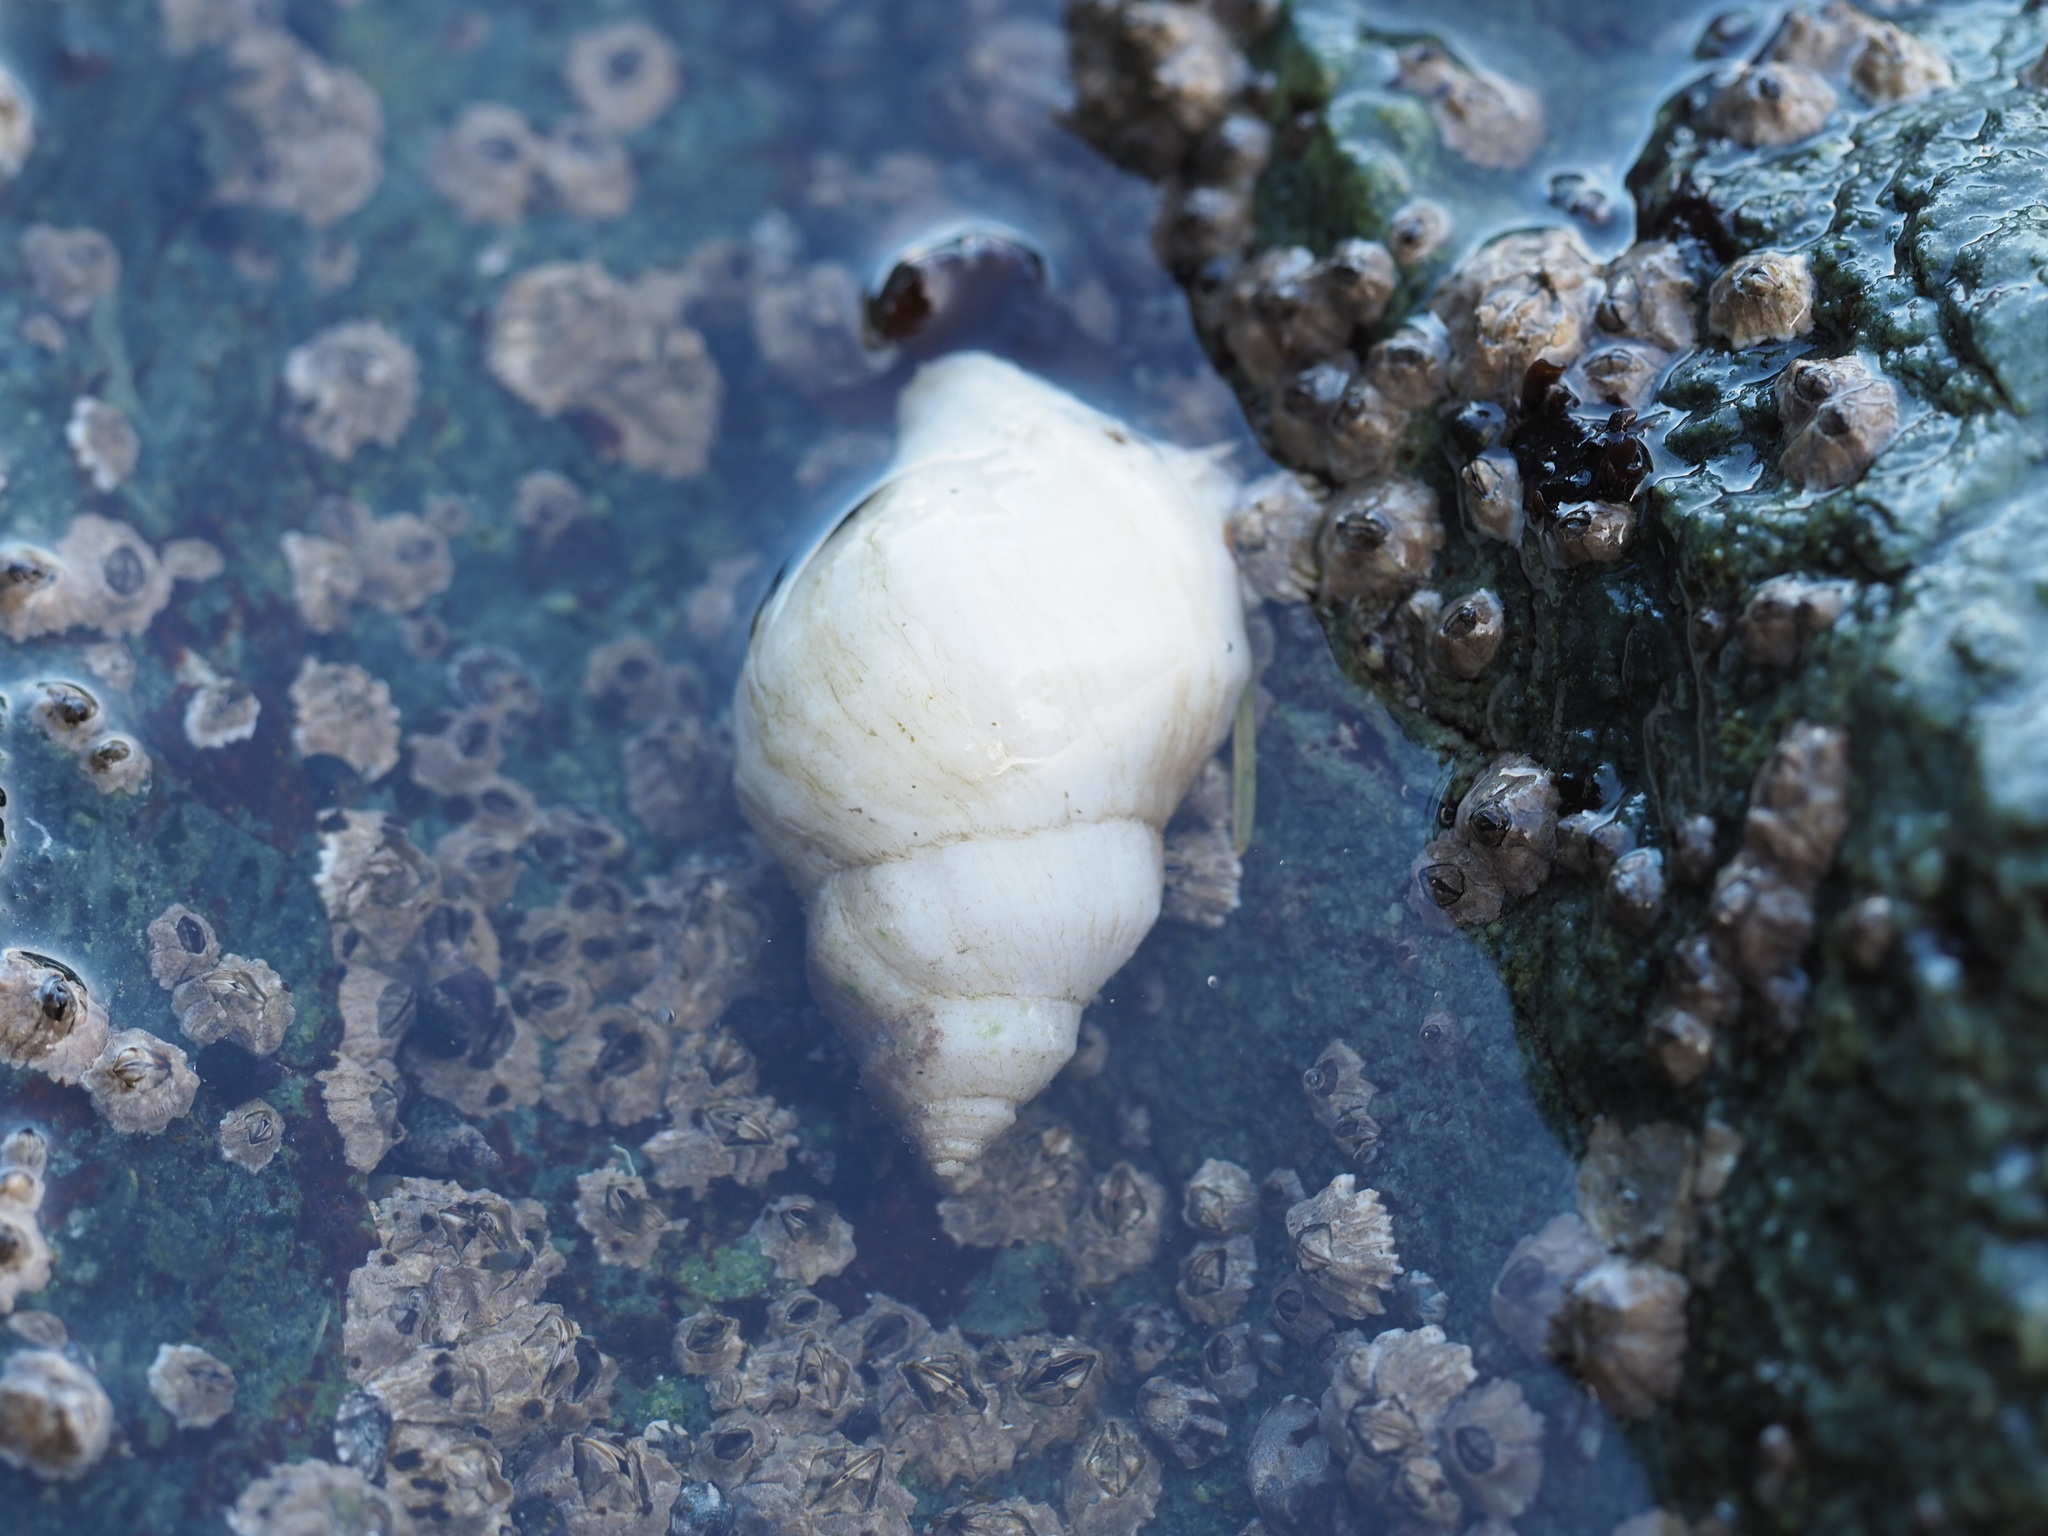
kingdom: Animalia
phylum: Mollusca
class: Gastropoda
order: Neogastropoda
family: Muricidae
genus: Nucella
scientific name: Nucella lamellosa
